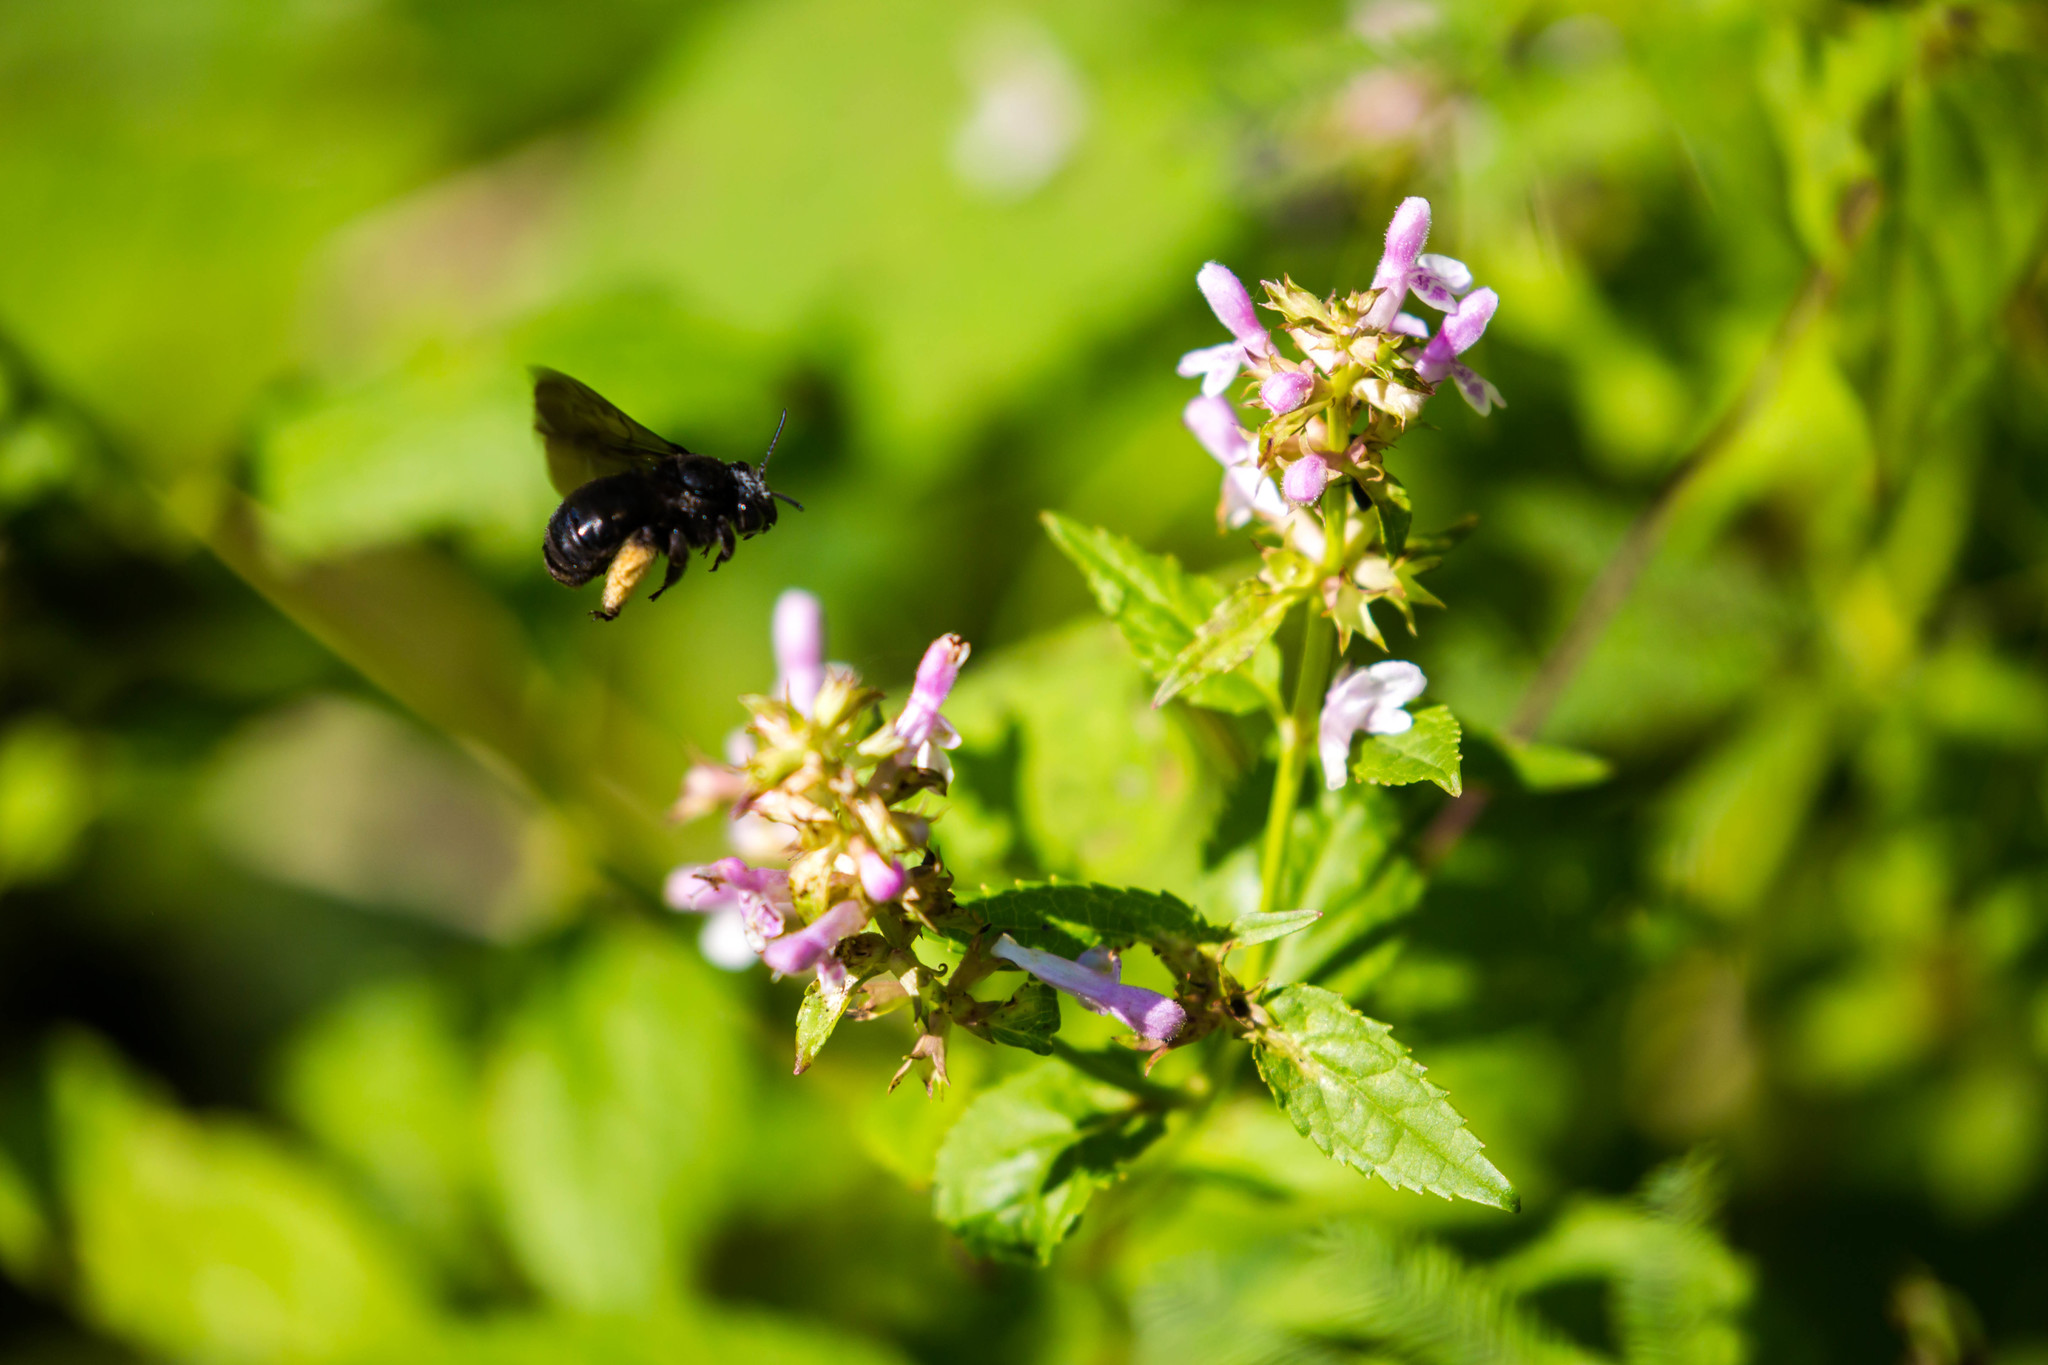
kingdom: Animalia
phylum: Arthropoda
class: Insecta
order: Hymenoptera
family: Apidae
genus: Melissodes
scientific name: Melissodes bimaculatus
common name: Two-spotted long-horned bee
